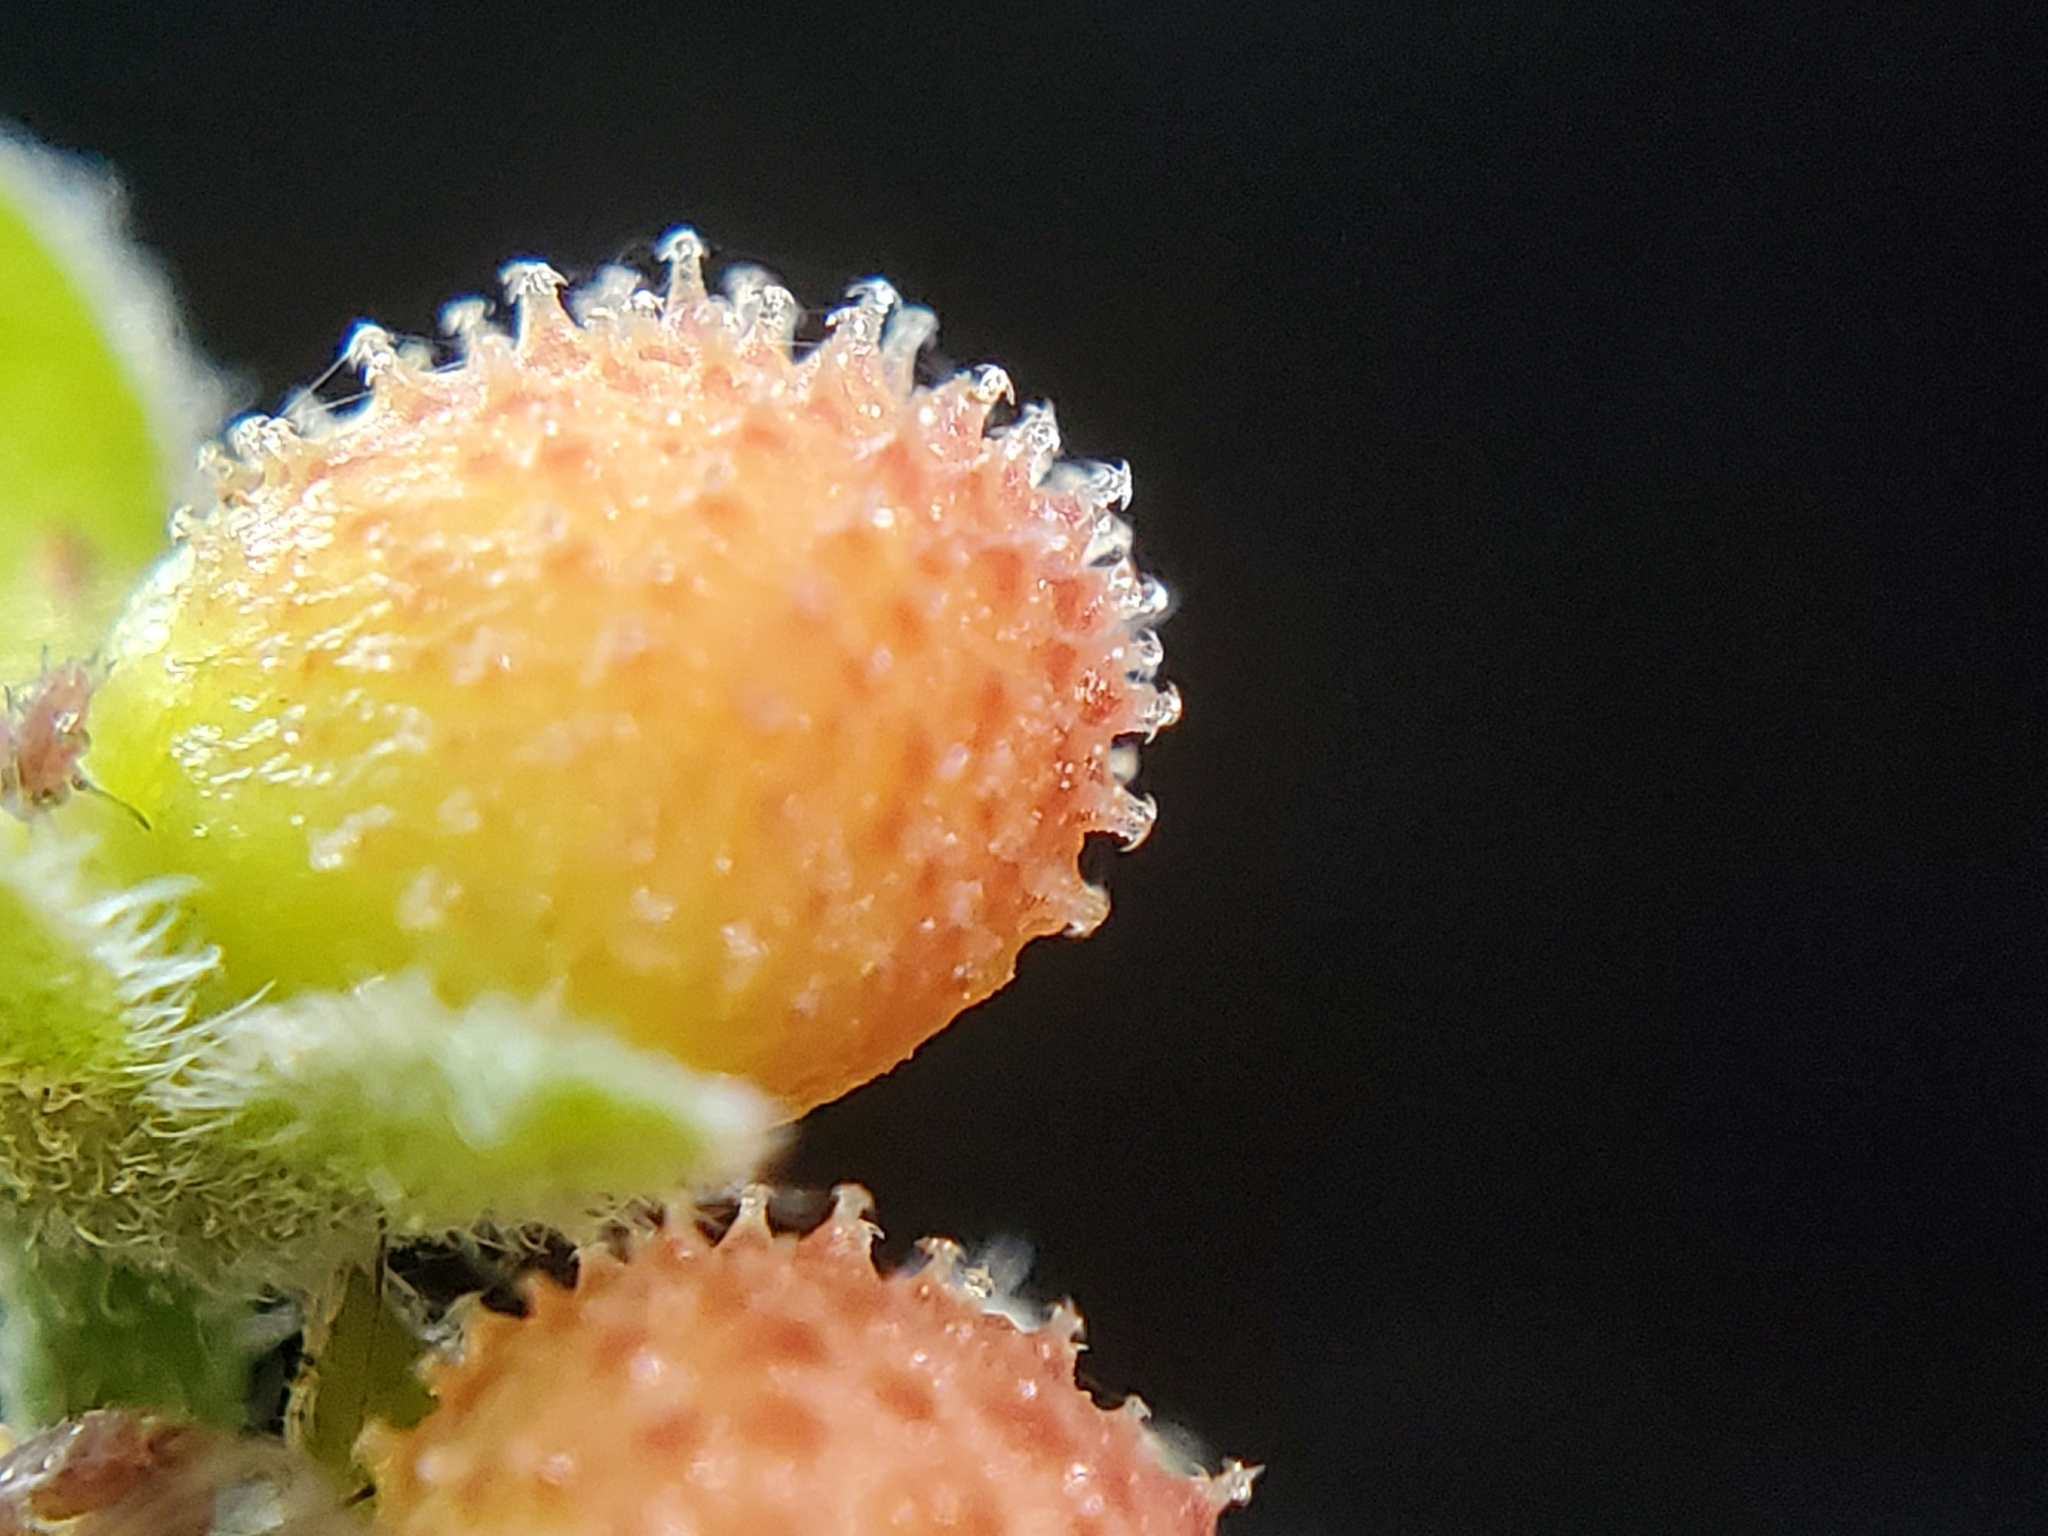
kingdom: Plantae
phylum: Tracheophyta
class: Magnoliopsida
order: Boraginales
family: Boraginaceae
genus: Adelinia
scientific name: Adelinia grande
